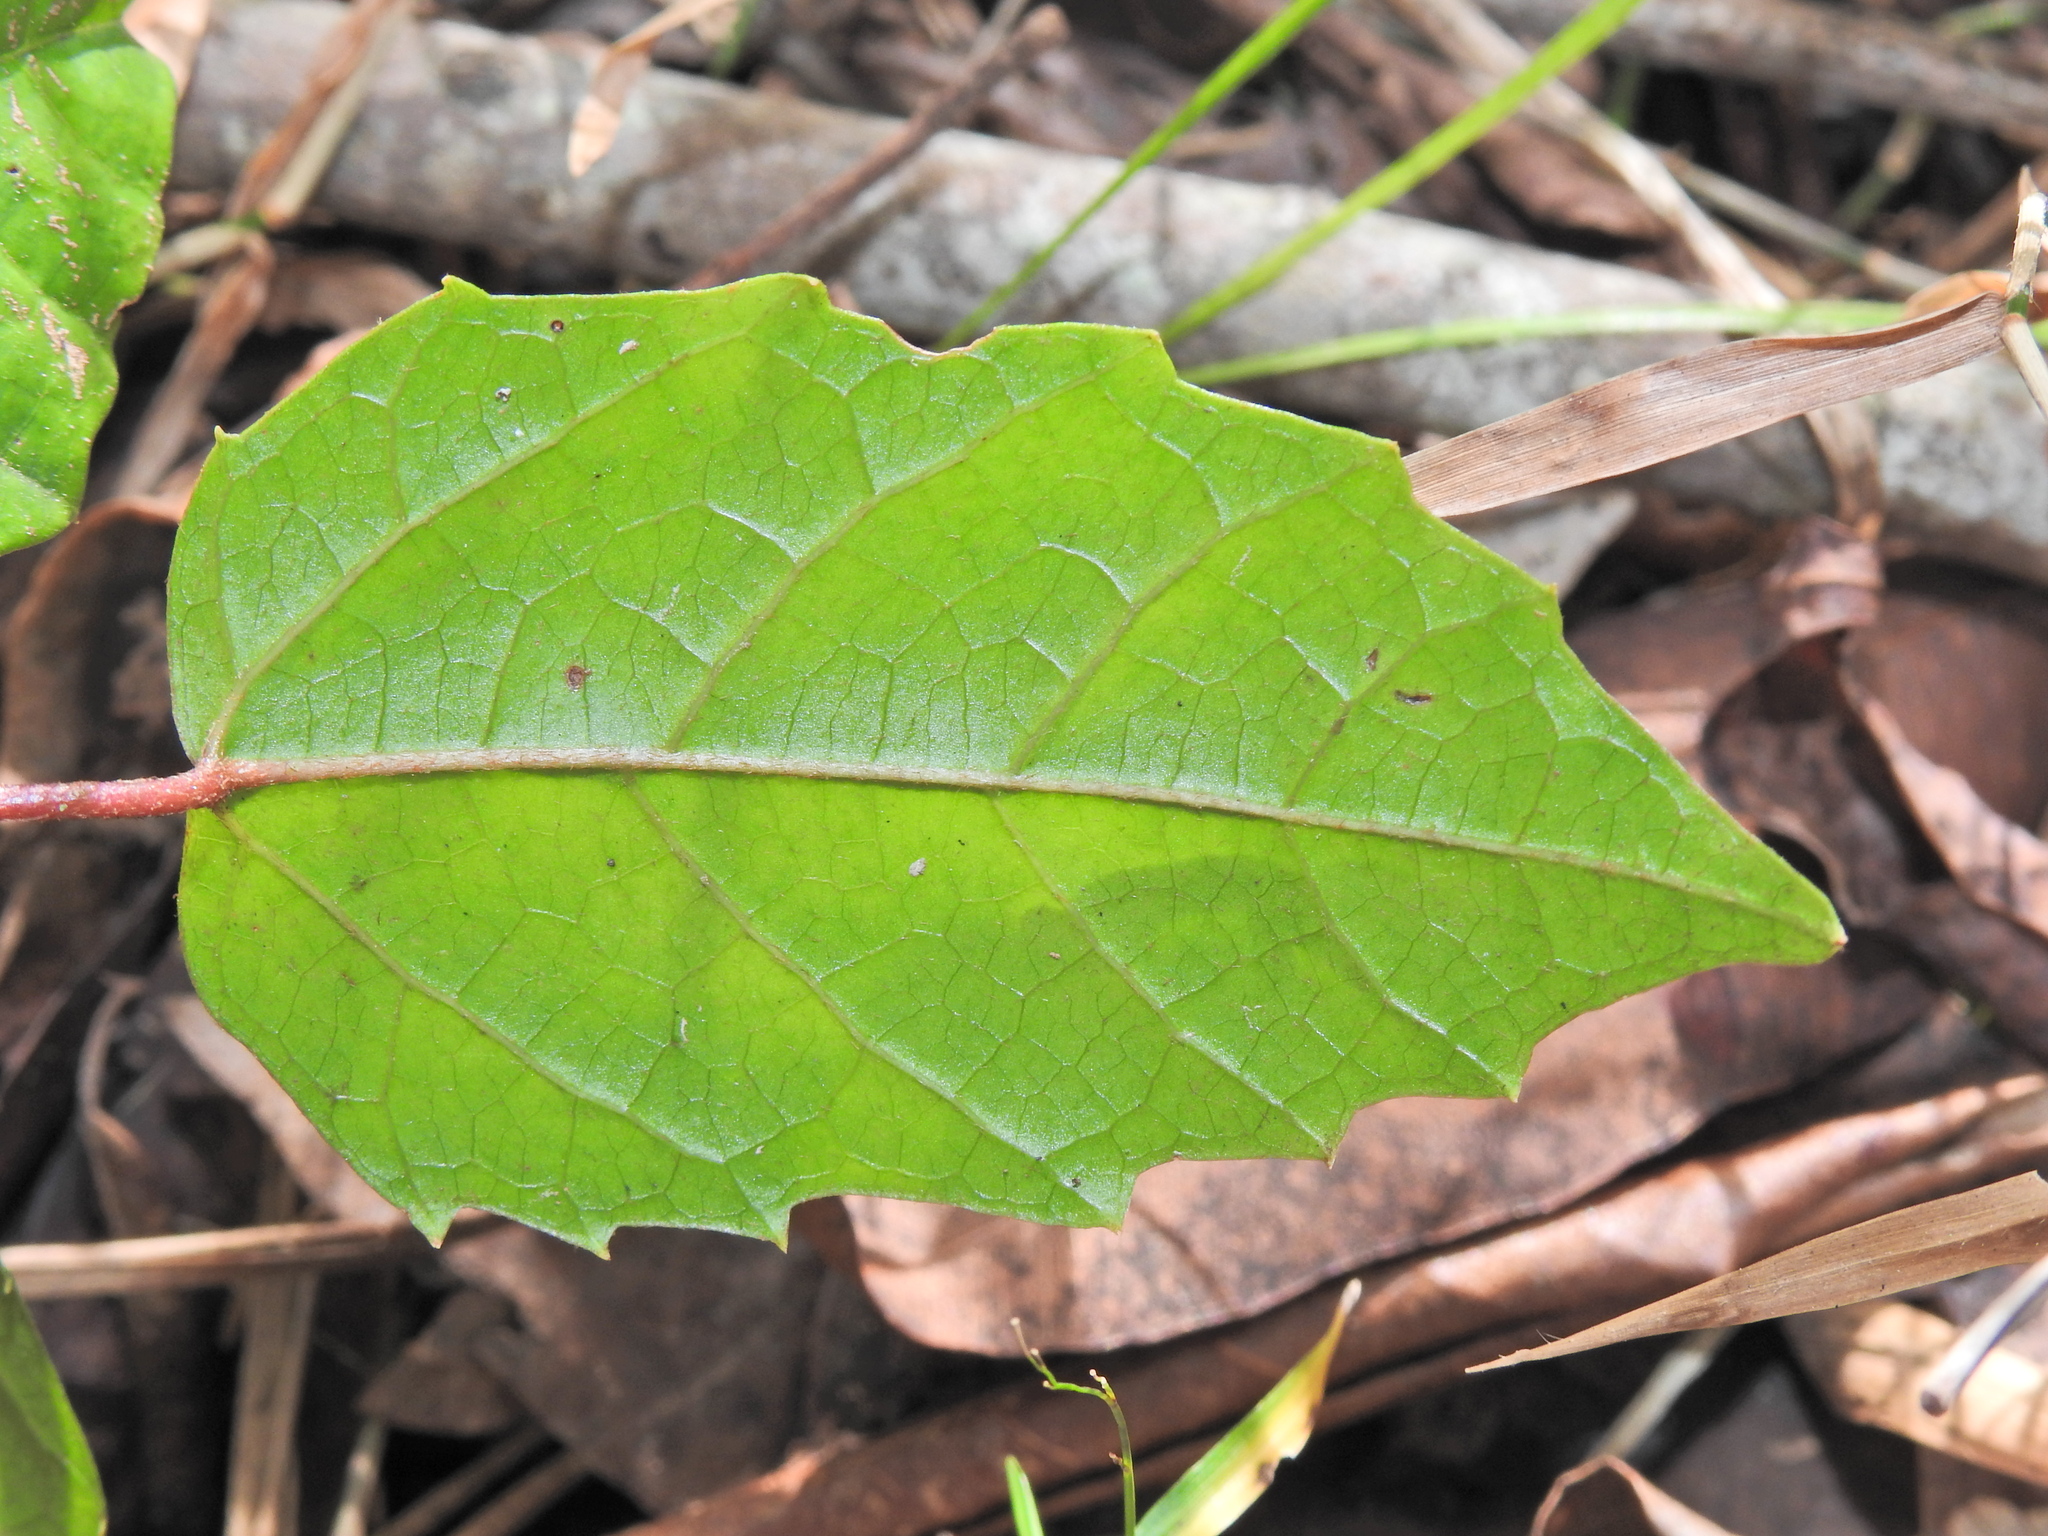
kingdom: Plantae
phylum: Tracheophyta
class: Magnoliopsida
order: Vitales
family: Vitaceae
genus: Cissus
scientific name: Cissus antarctica
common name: Kangaroo vine
